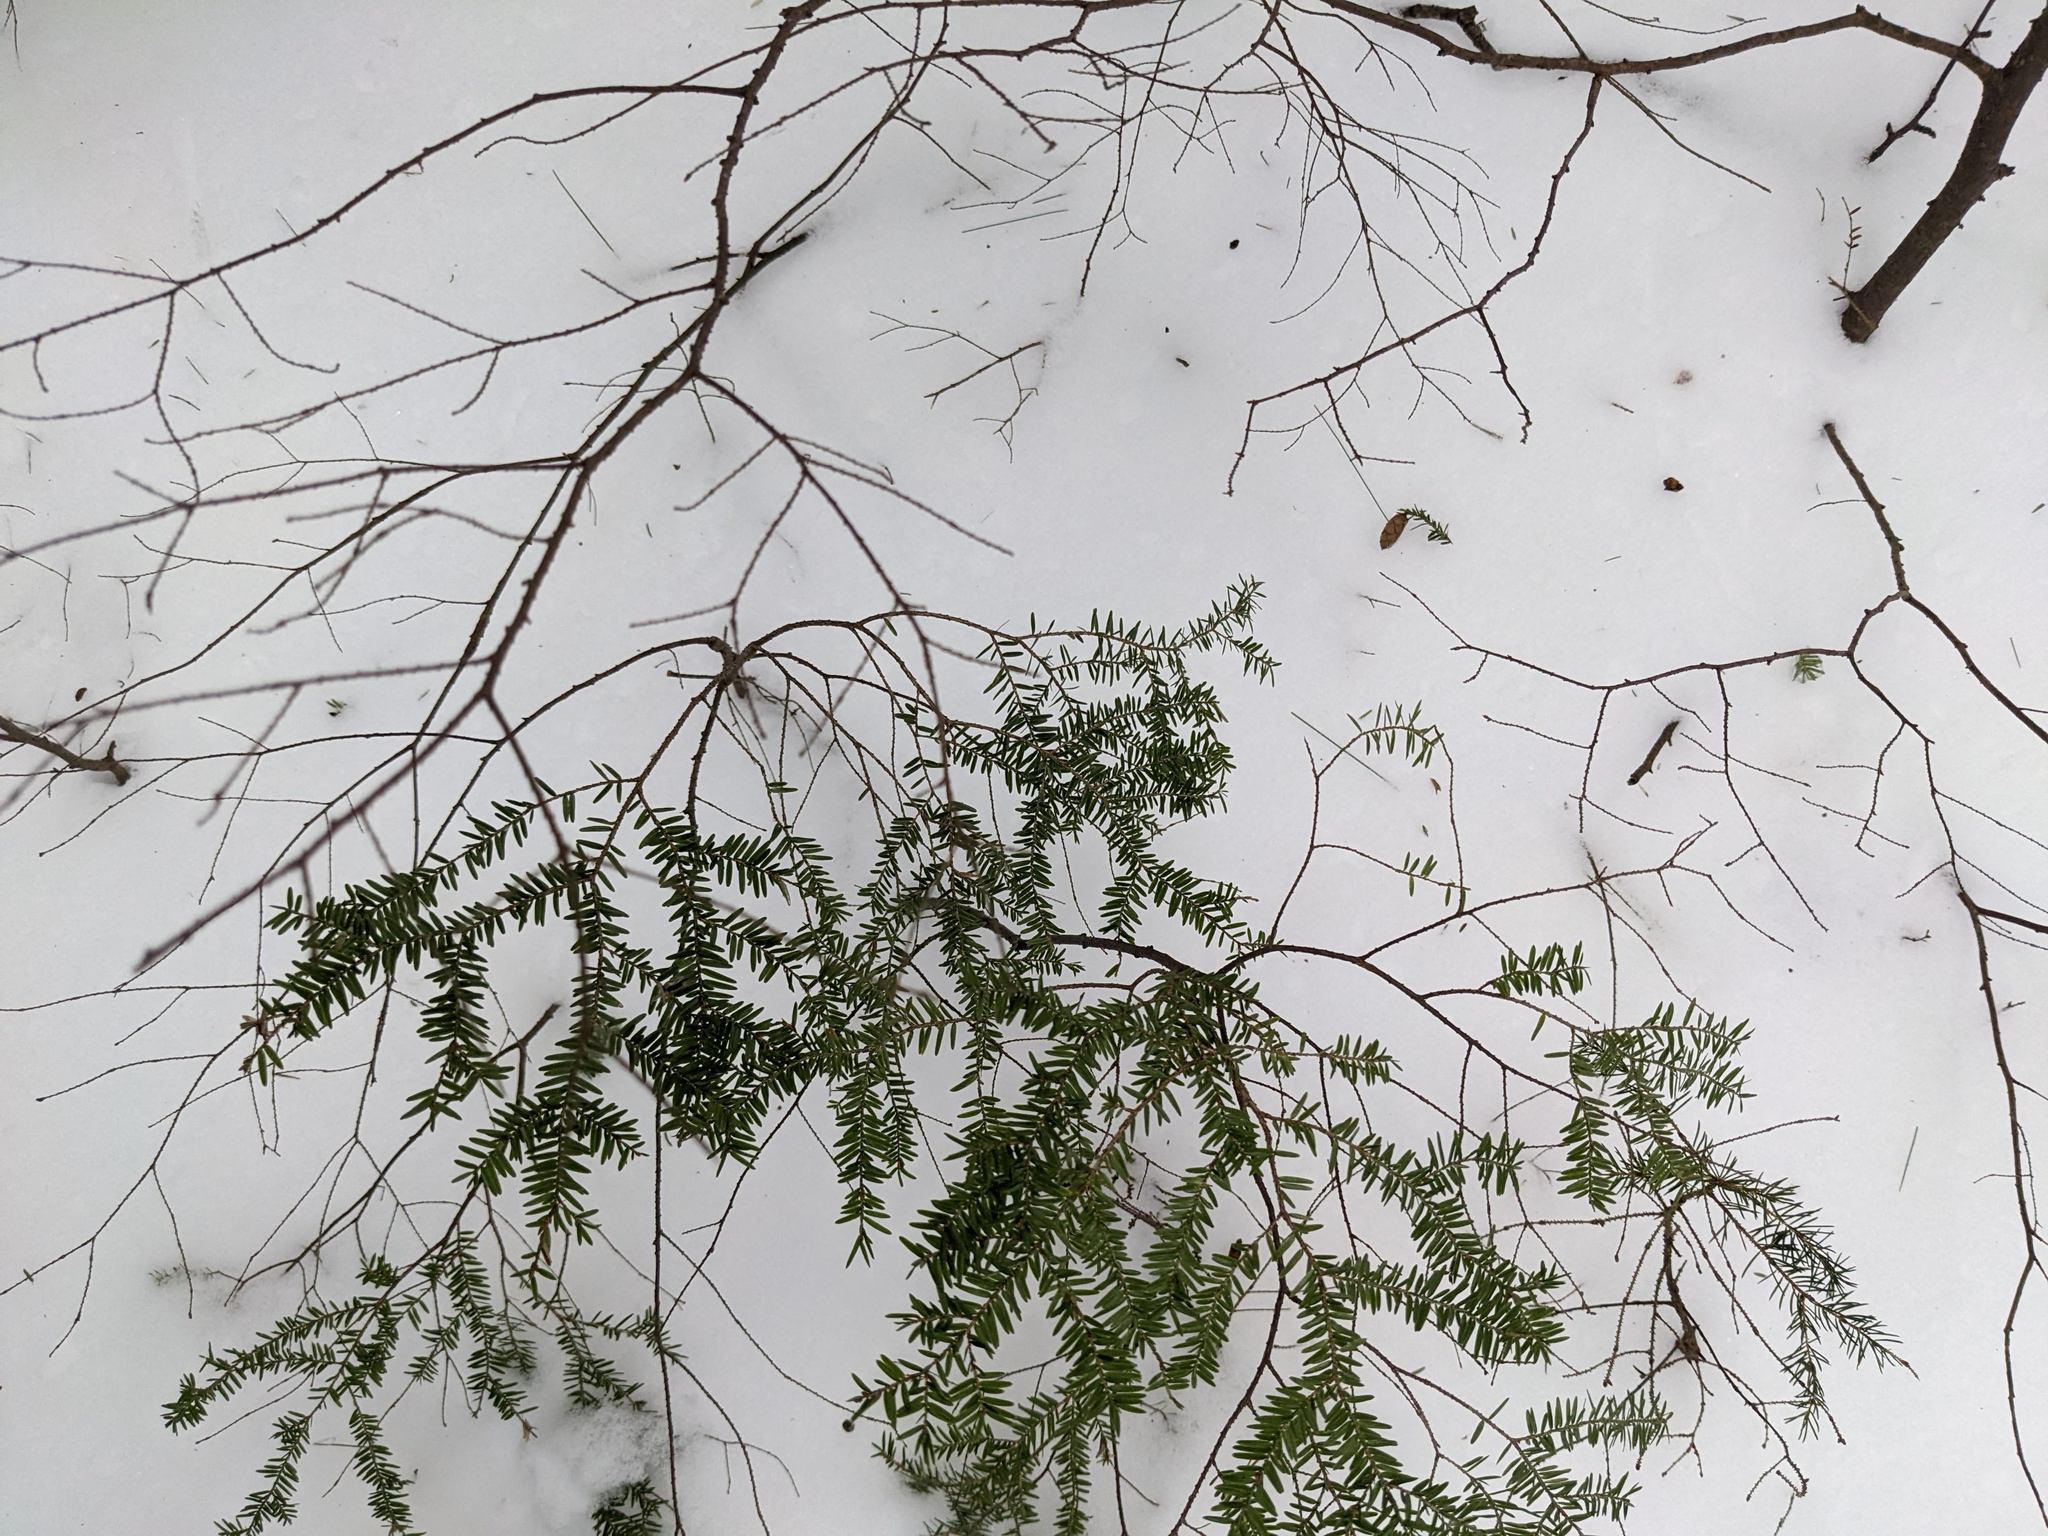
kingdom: Plantae
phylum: Tracheophyta
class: Pinopsida
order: Pinales
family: Pinaceae
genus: Tsuga
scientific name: Tsuga canadensis
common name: Eastern hemlock
